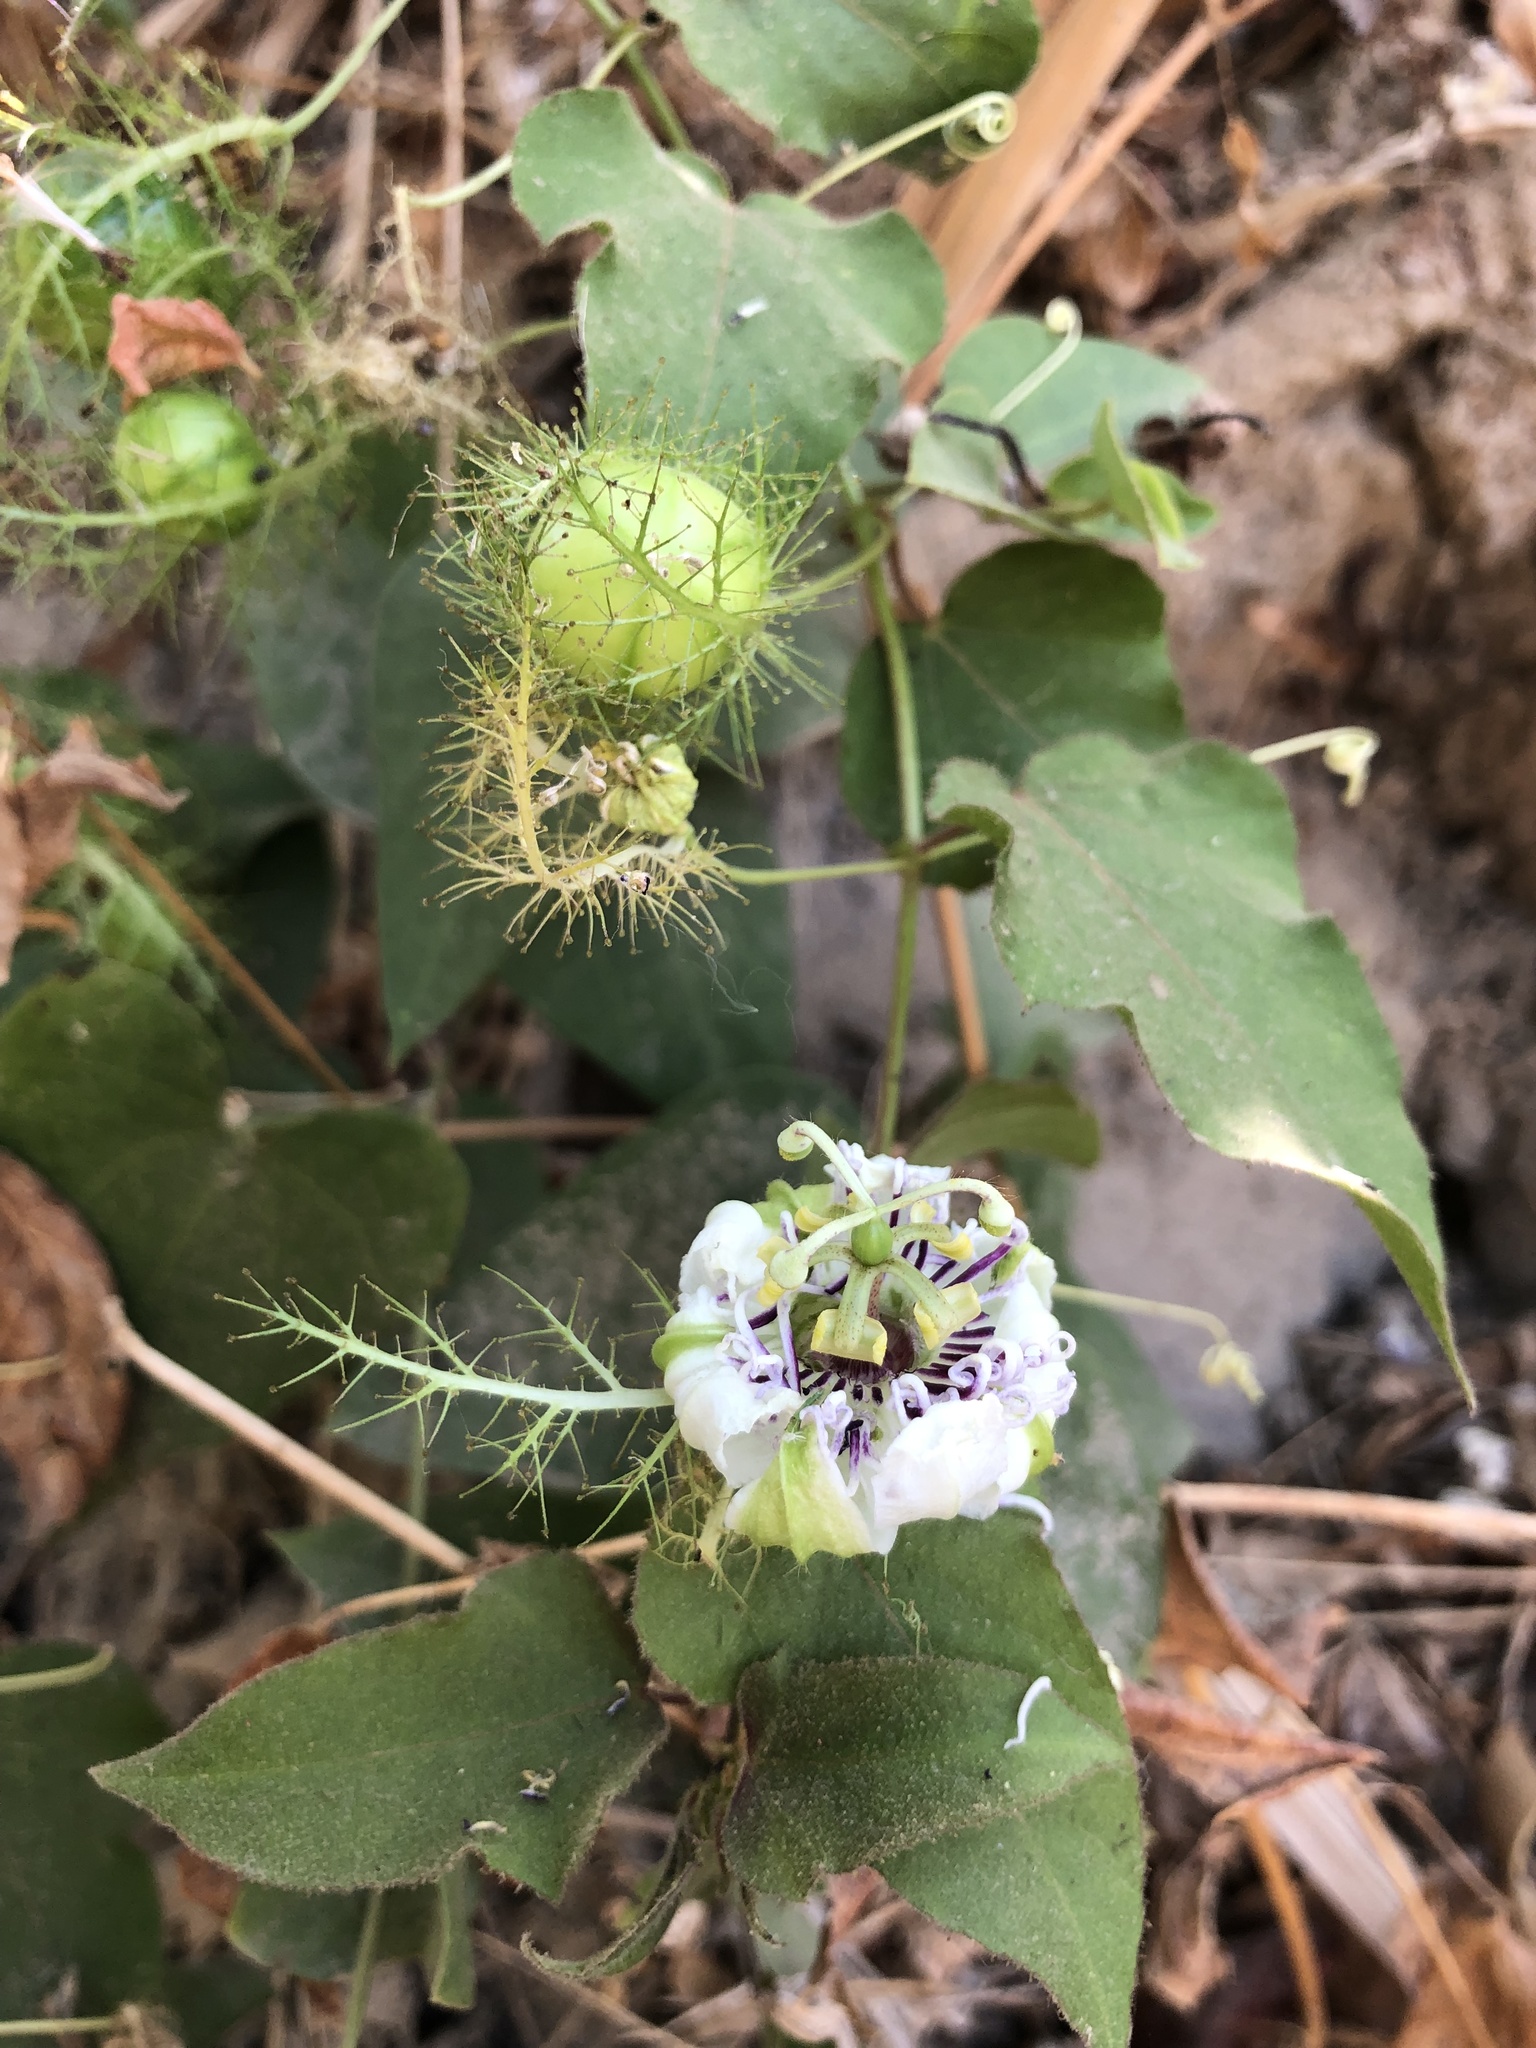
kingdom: Plantae
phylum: Tracheophyta
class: Magnoliopsida
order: Malpighiales
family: Passifloraceae
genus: Passiflora
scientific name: Passiflora foetida
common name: Fetid passionflower
